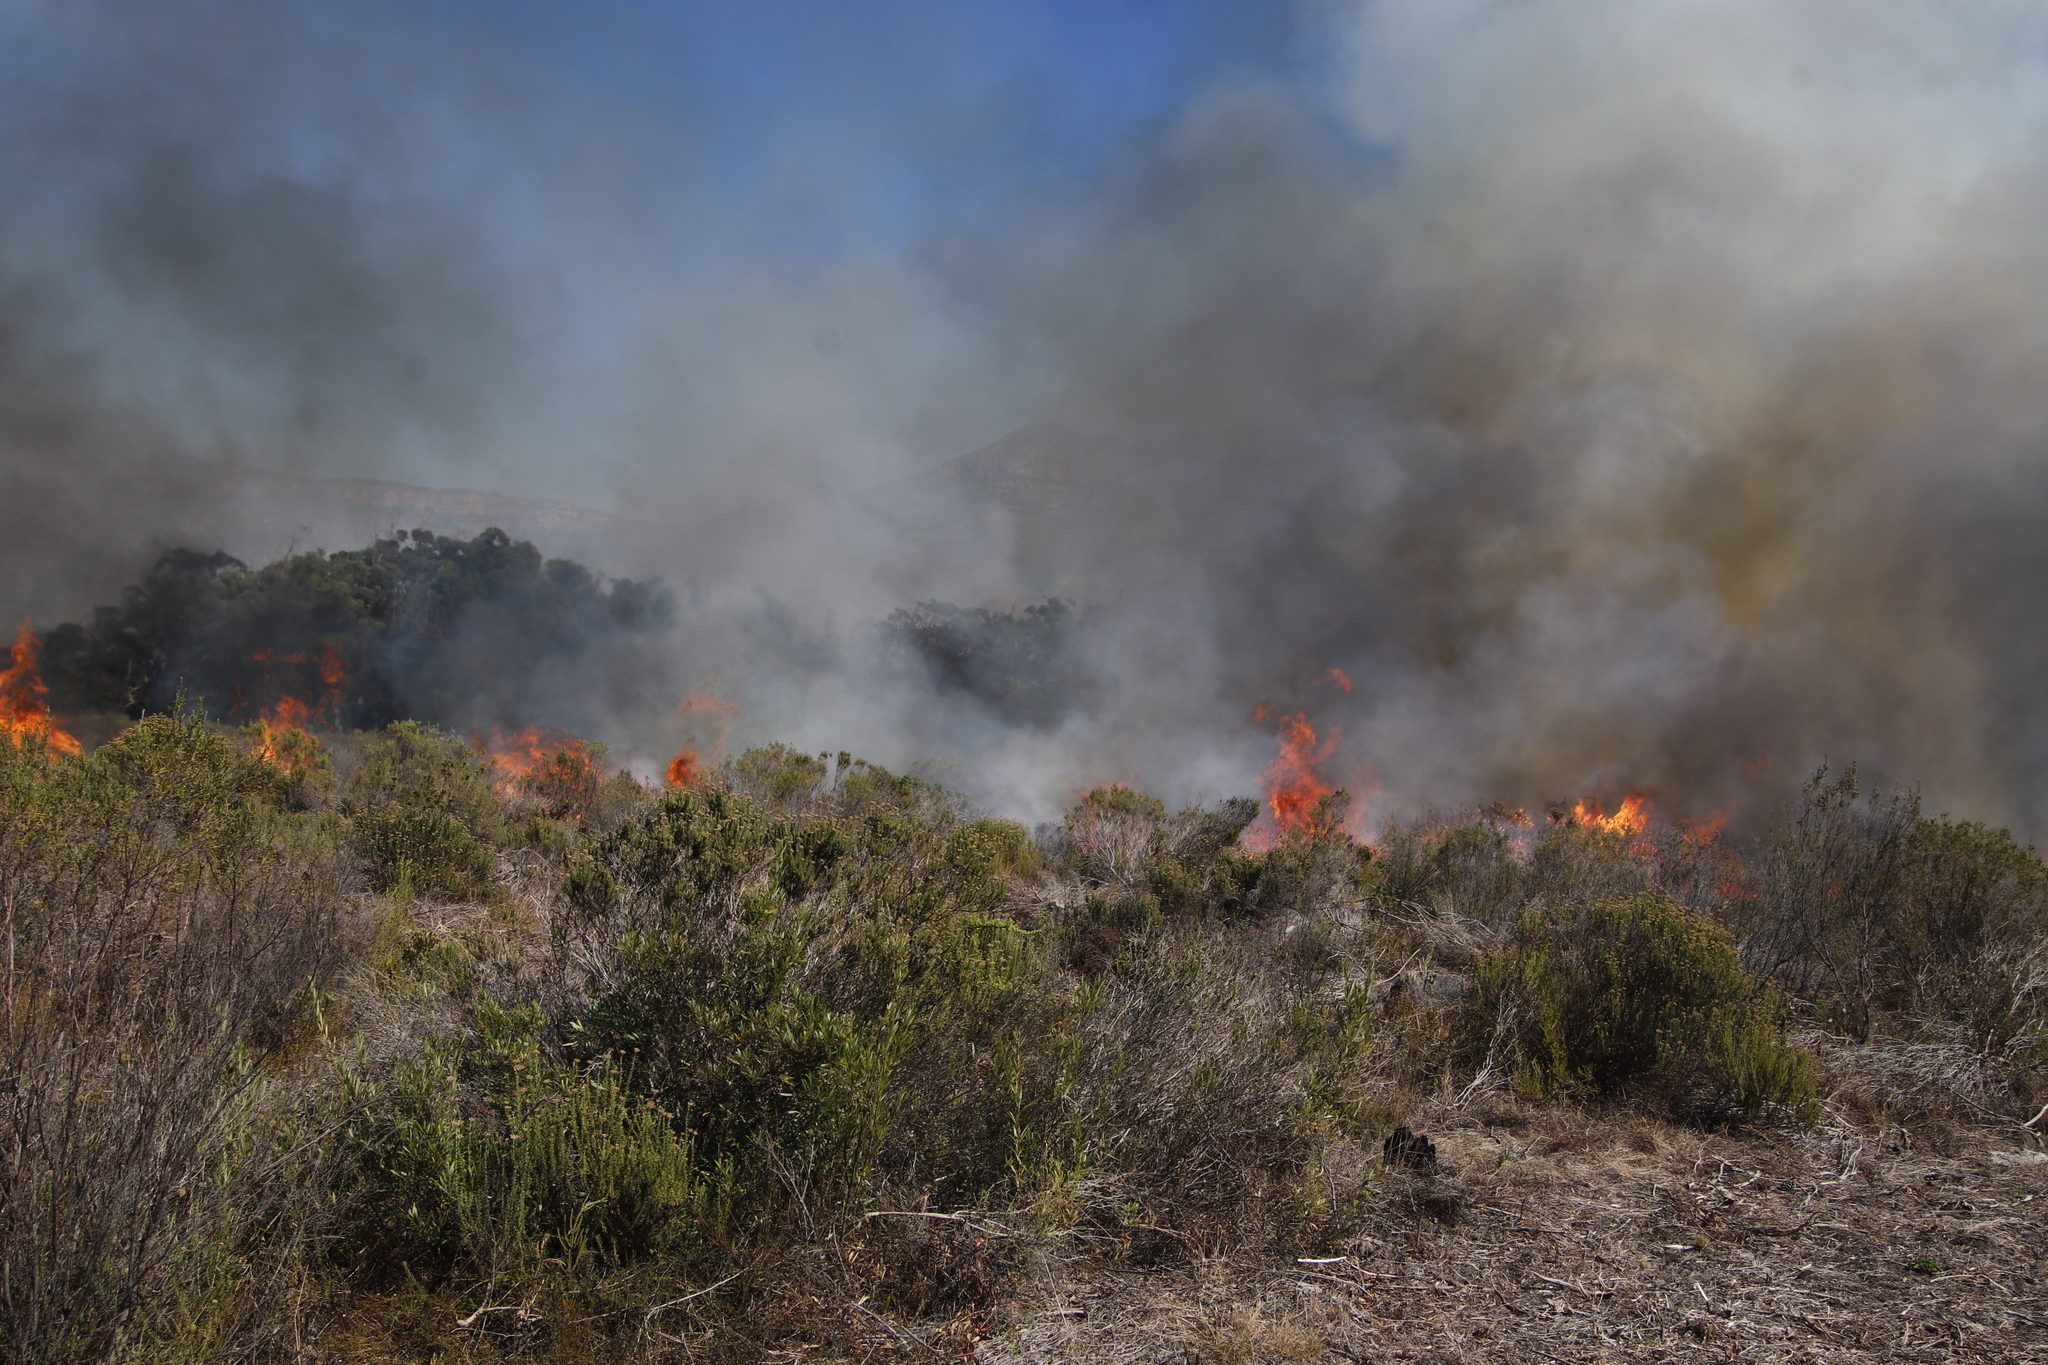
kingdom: Plantae
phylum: Tracheophyta
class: Magnoliopsida
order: Asterales
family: Asteraceae
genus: Metalasia
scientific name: Metalasia densa
